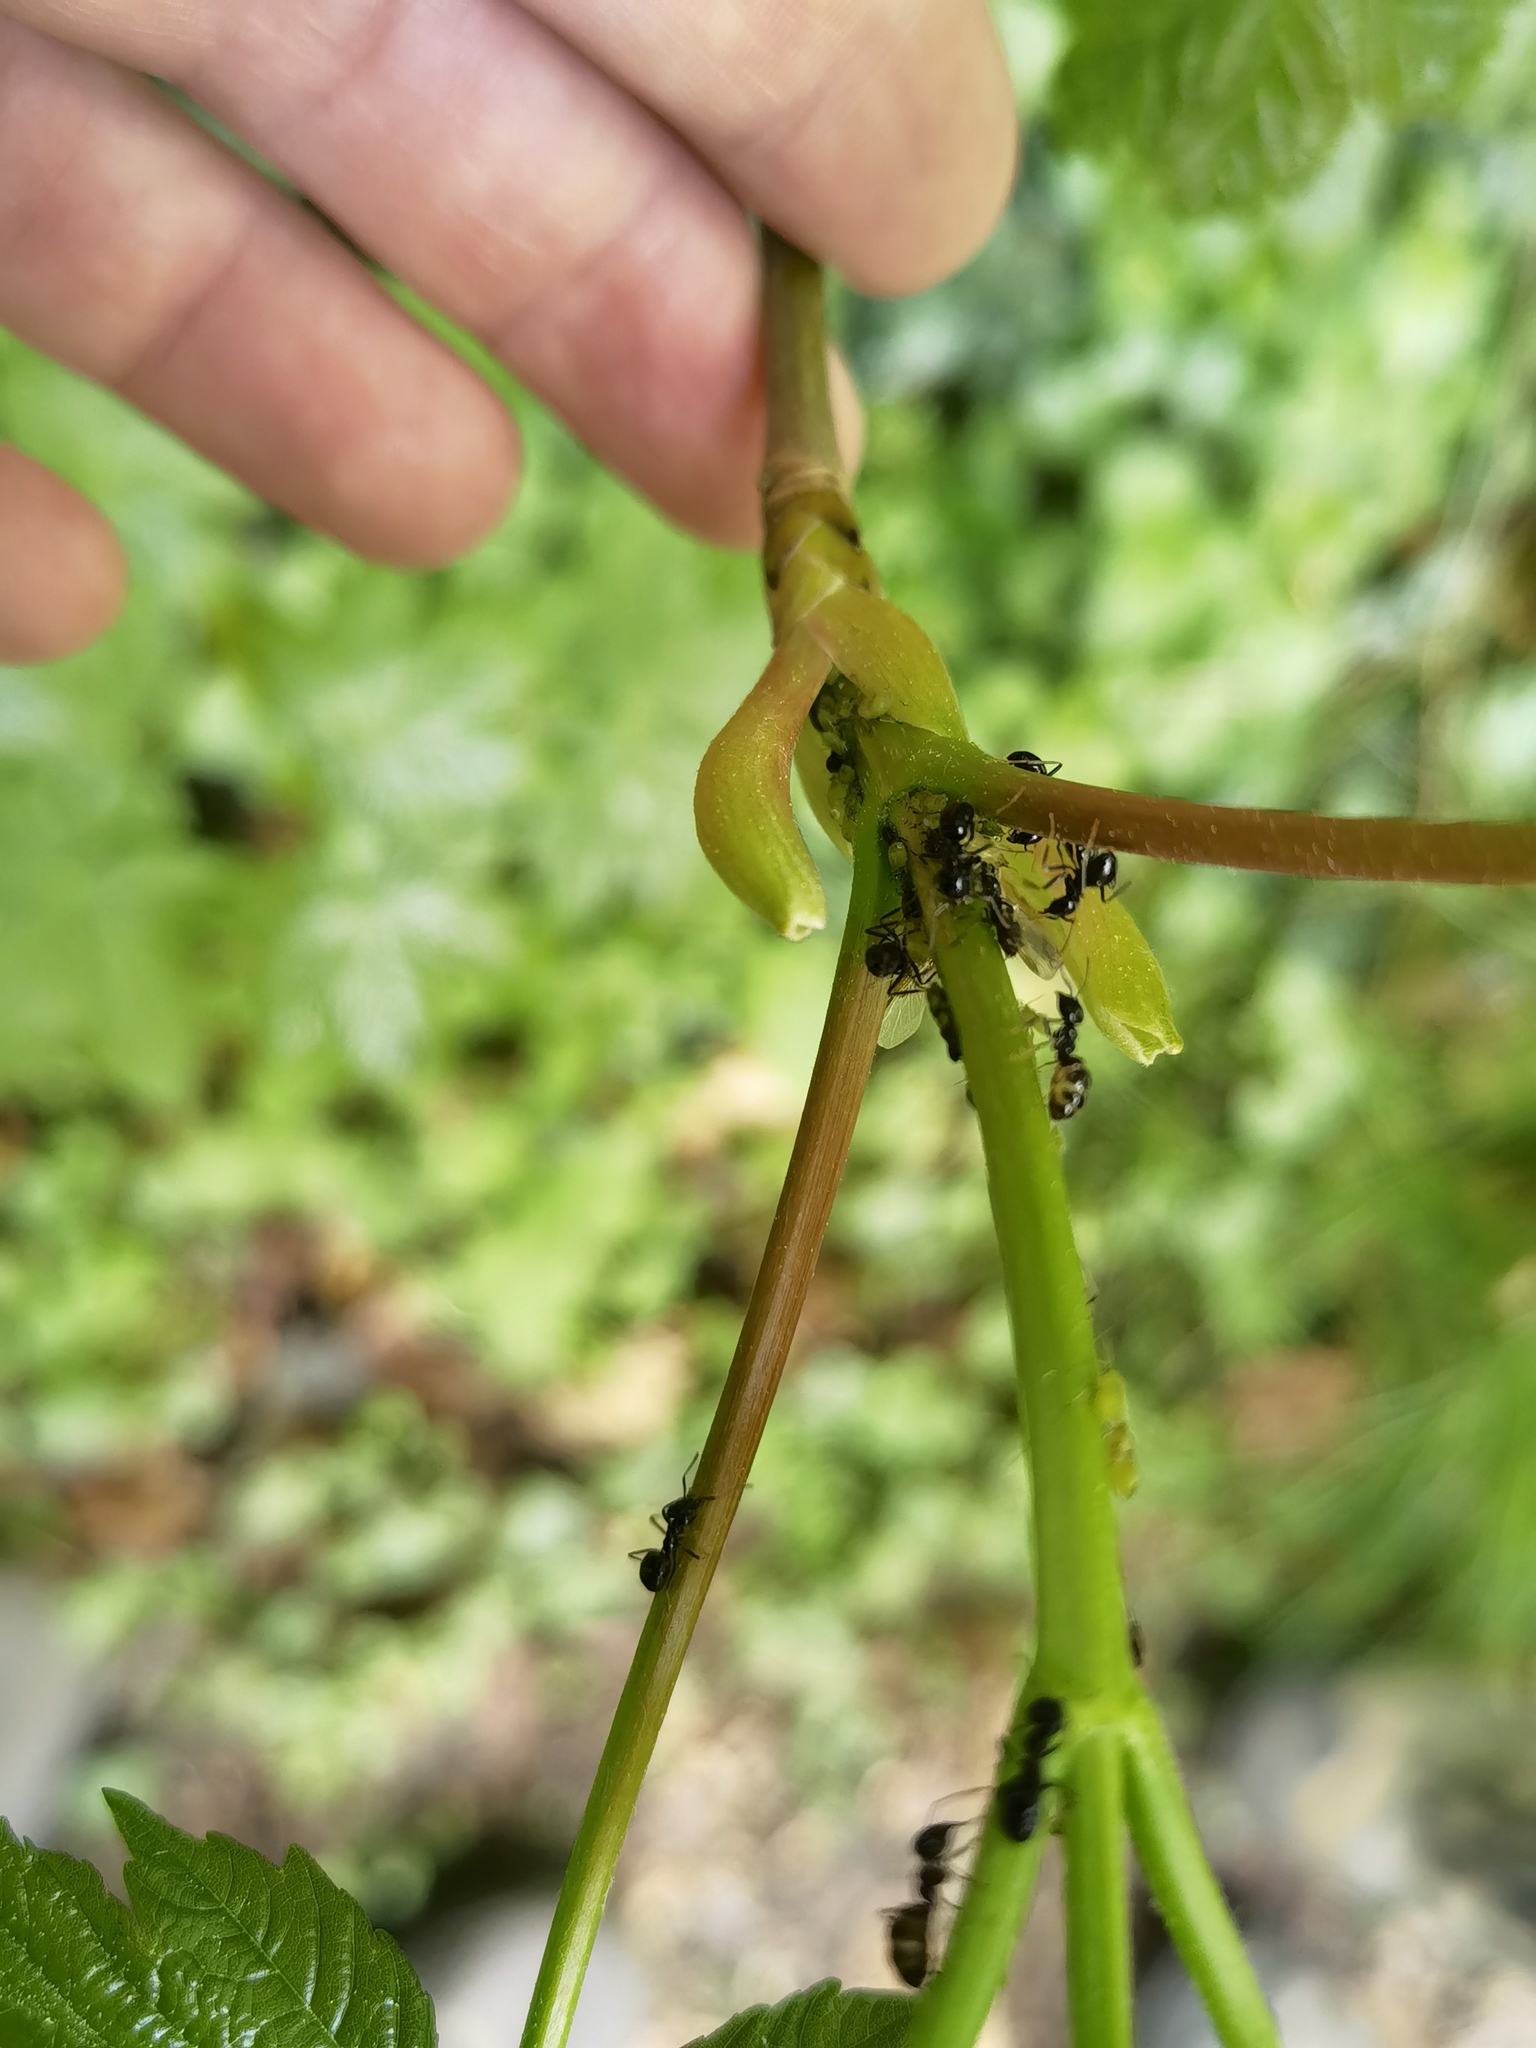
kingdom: Animalia
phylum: Arthropoda
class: Insecta
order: Hymenoptera
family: Formicidae
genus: Lasius
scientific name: Lasius fuliginosus
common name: Jet ant
